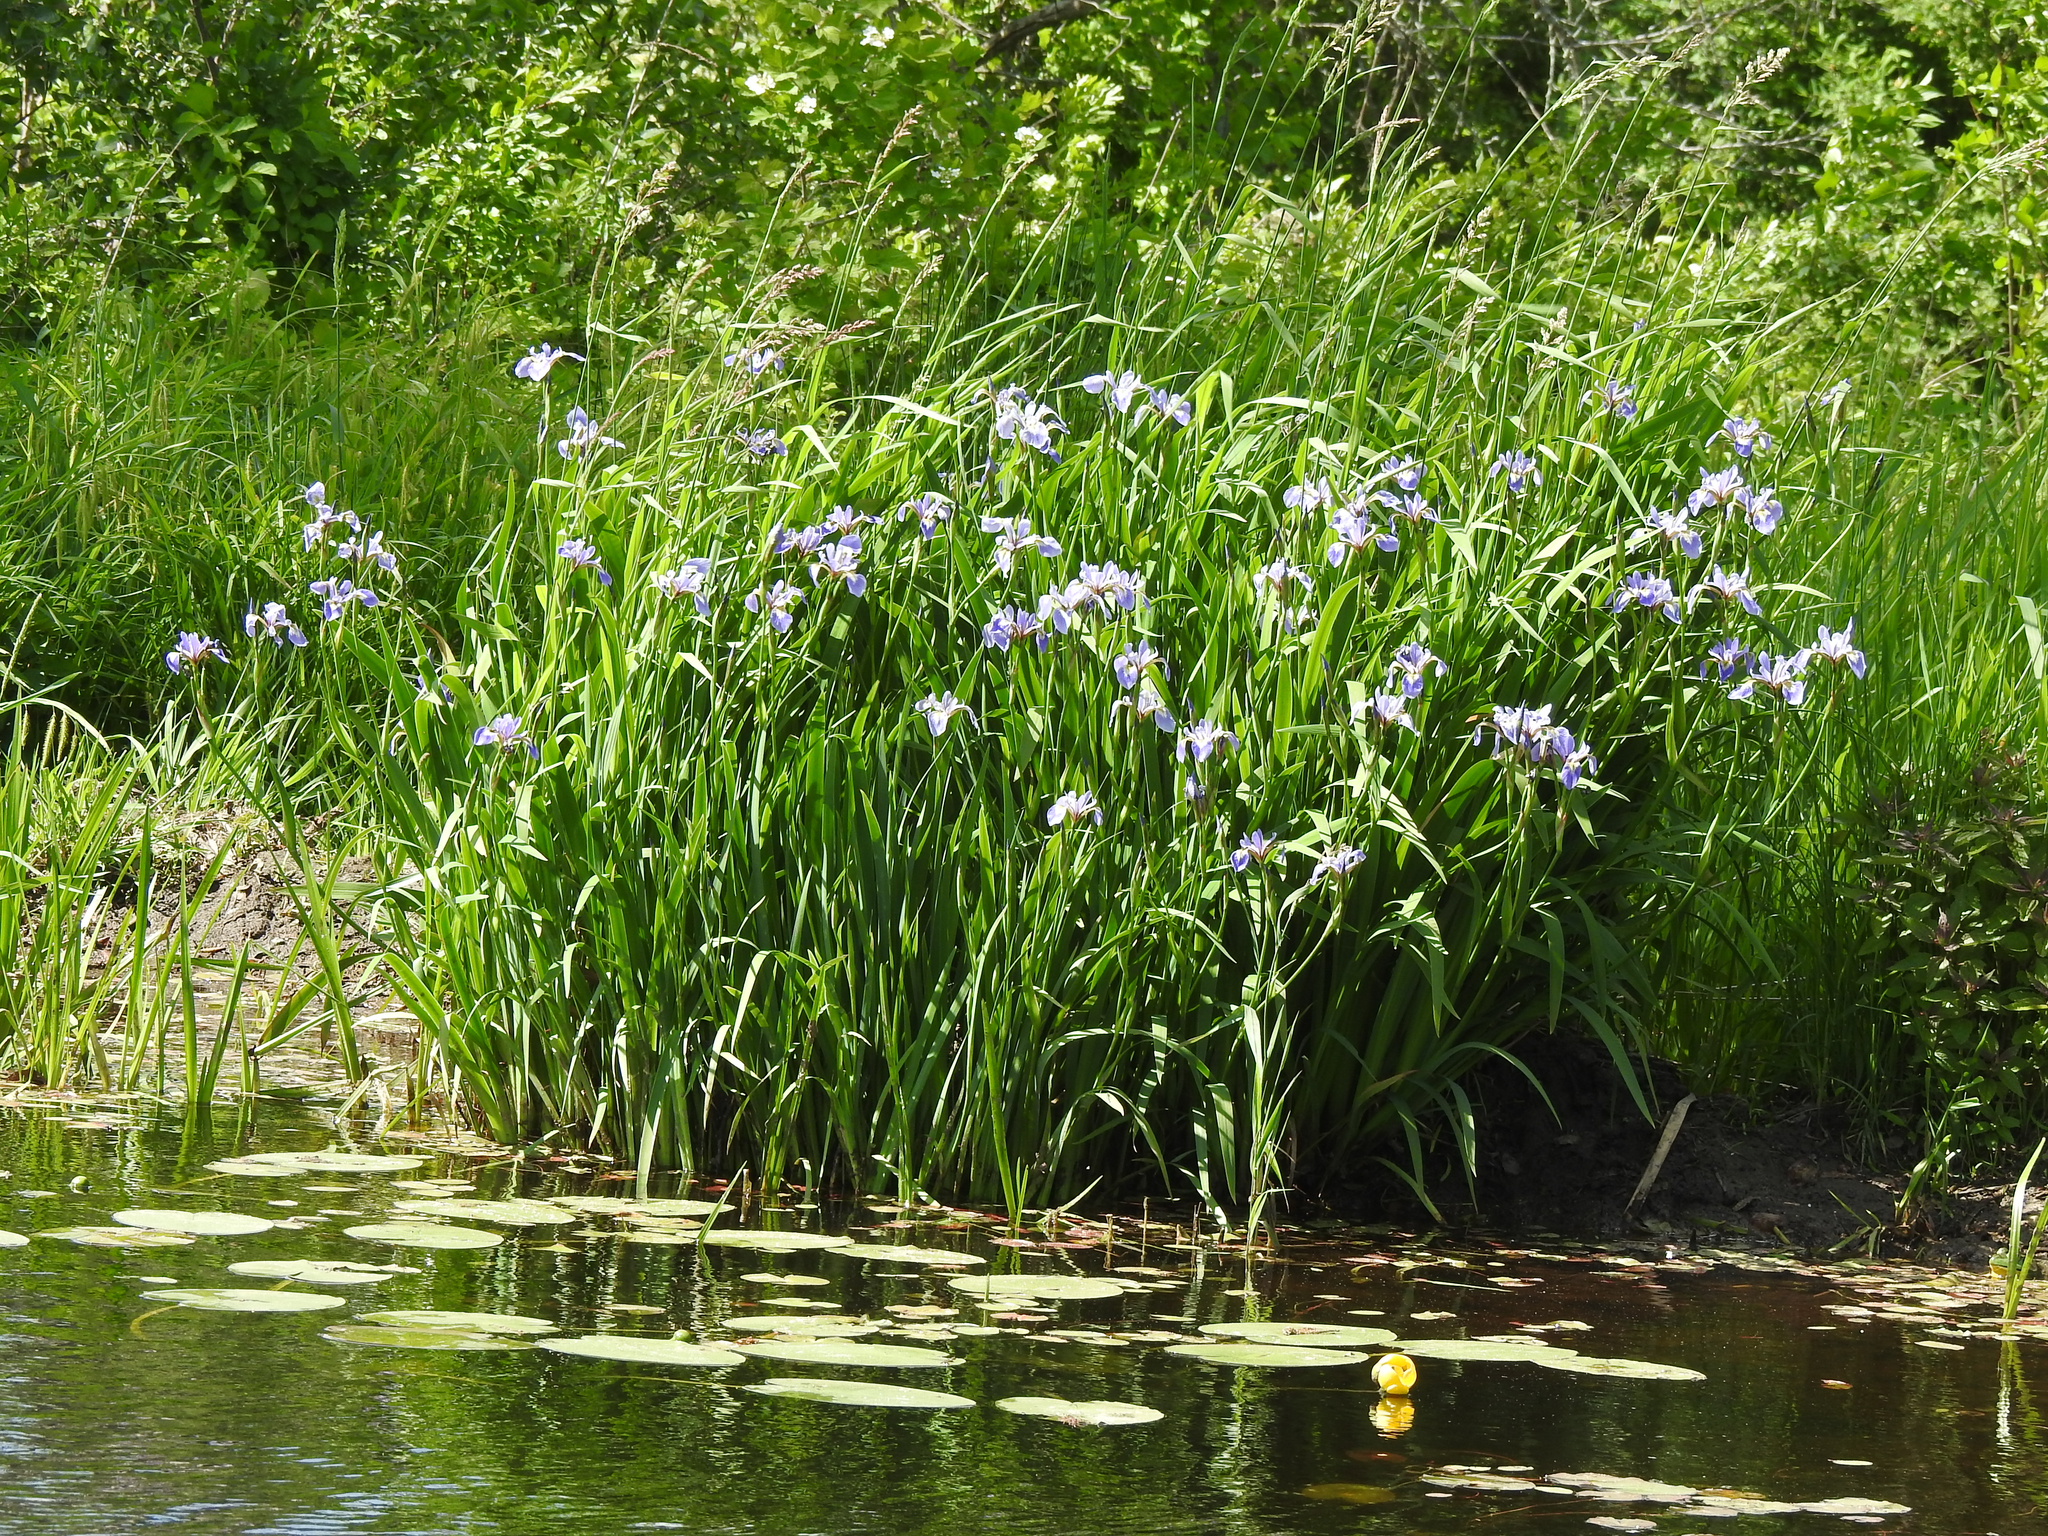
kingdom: Plantae
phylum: Tracheophyta
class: Liliopsida
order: Asparagales
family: Iridaceae
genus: Iris
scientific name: Iris versicolor
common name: Purple iris
